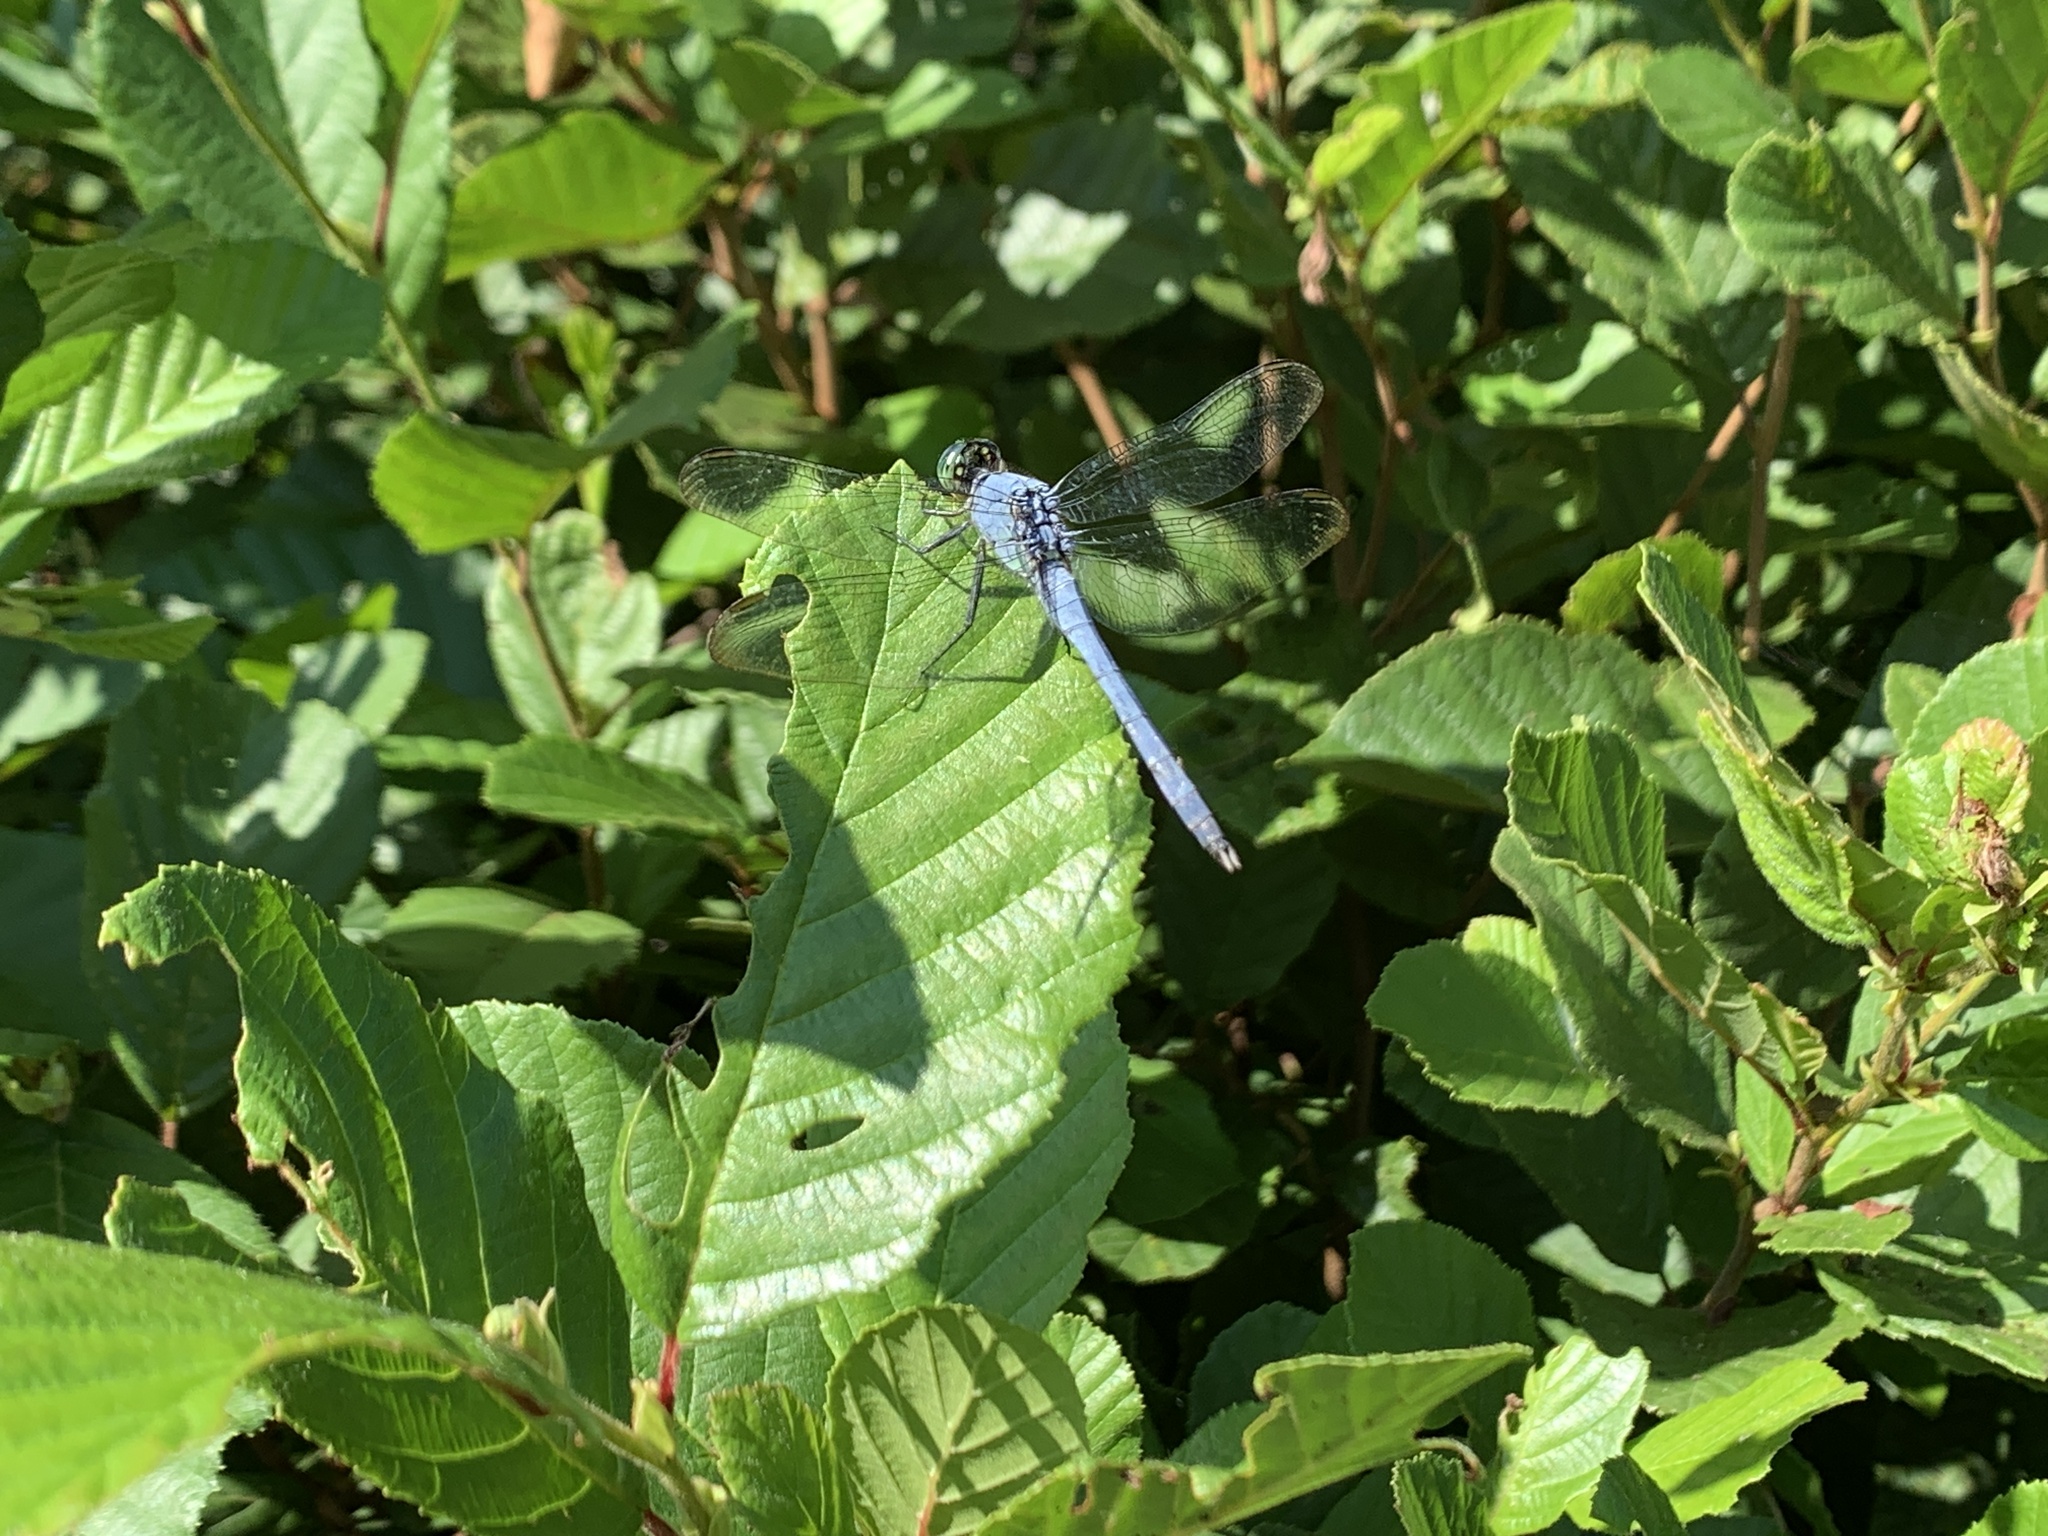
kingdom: Animalia
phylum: Arthropoda
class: Insecta
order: Odonata
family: Libellulidae
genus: Erythemis
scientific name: Erythemis simplicicollis
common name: Eastern pondhawk
